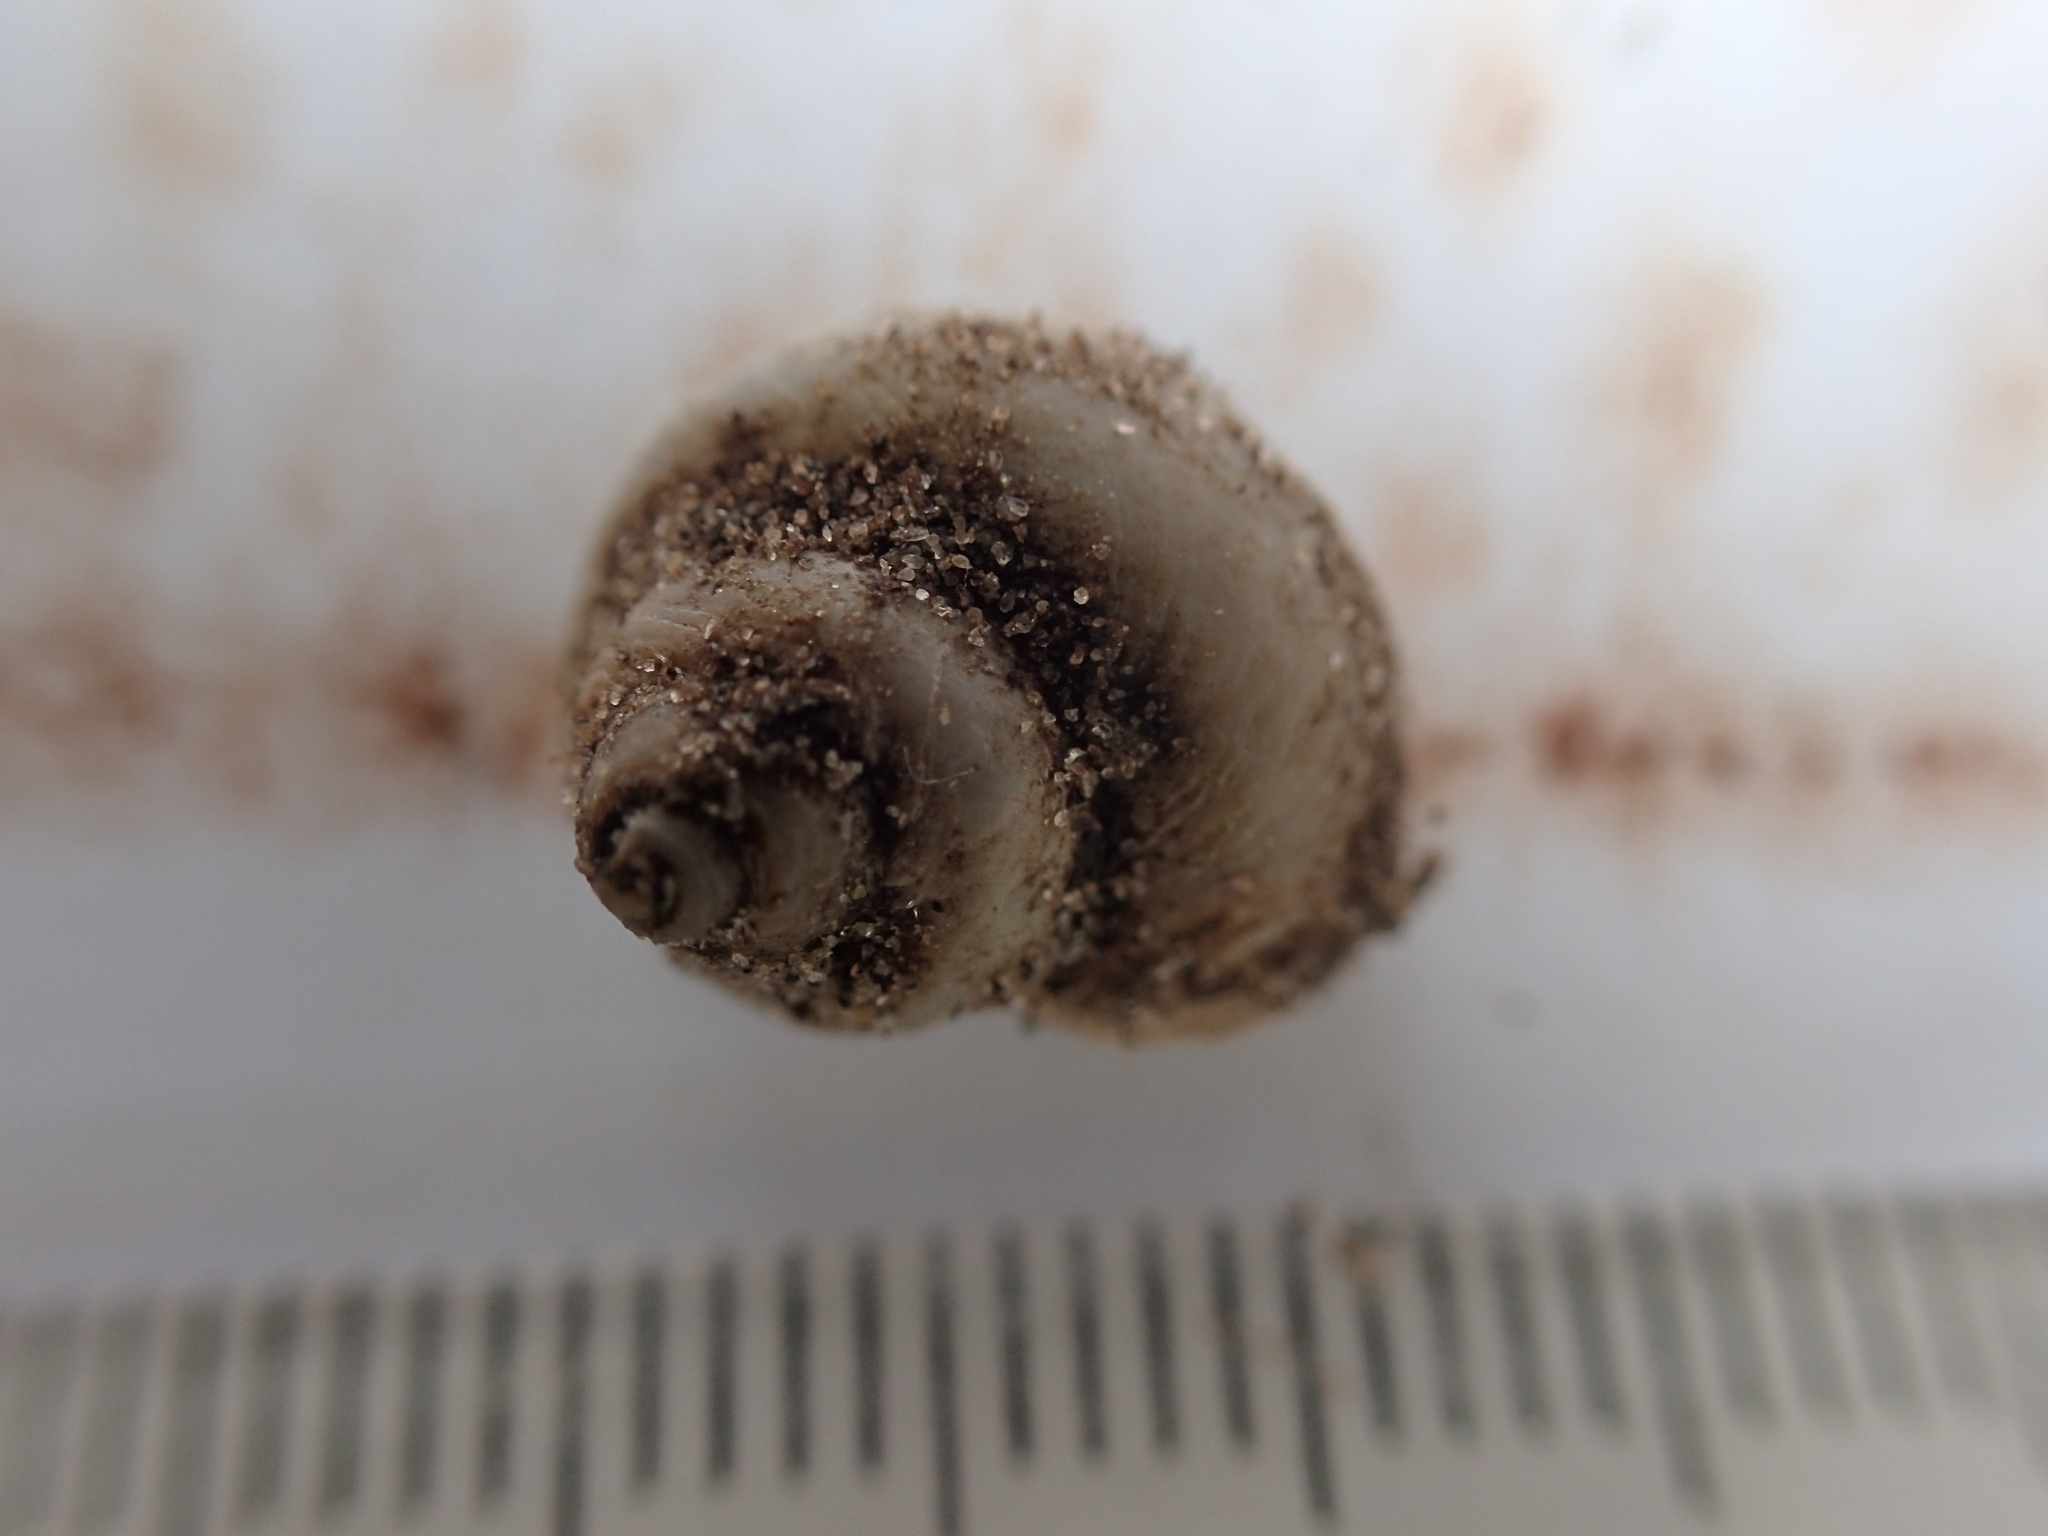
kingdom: Animalia
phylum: Mollusca
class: Gastropoda
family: Amphibolidae
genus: Phallomedusa
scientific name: Phallomedusa solida
